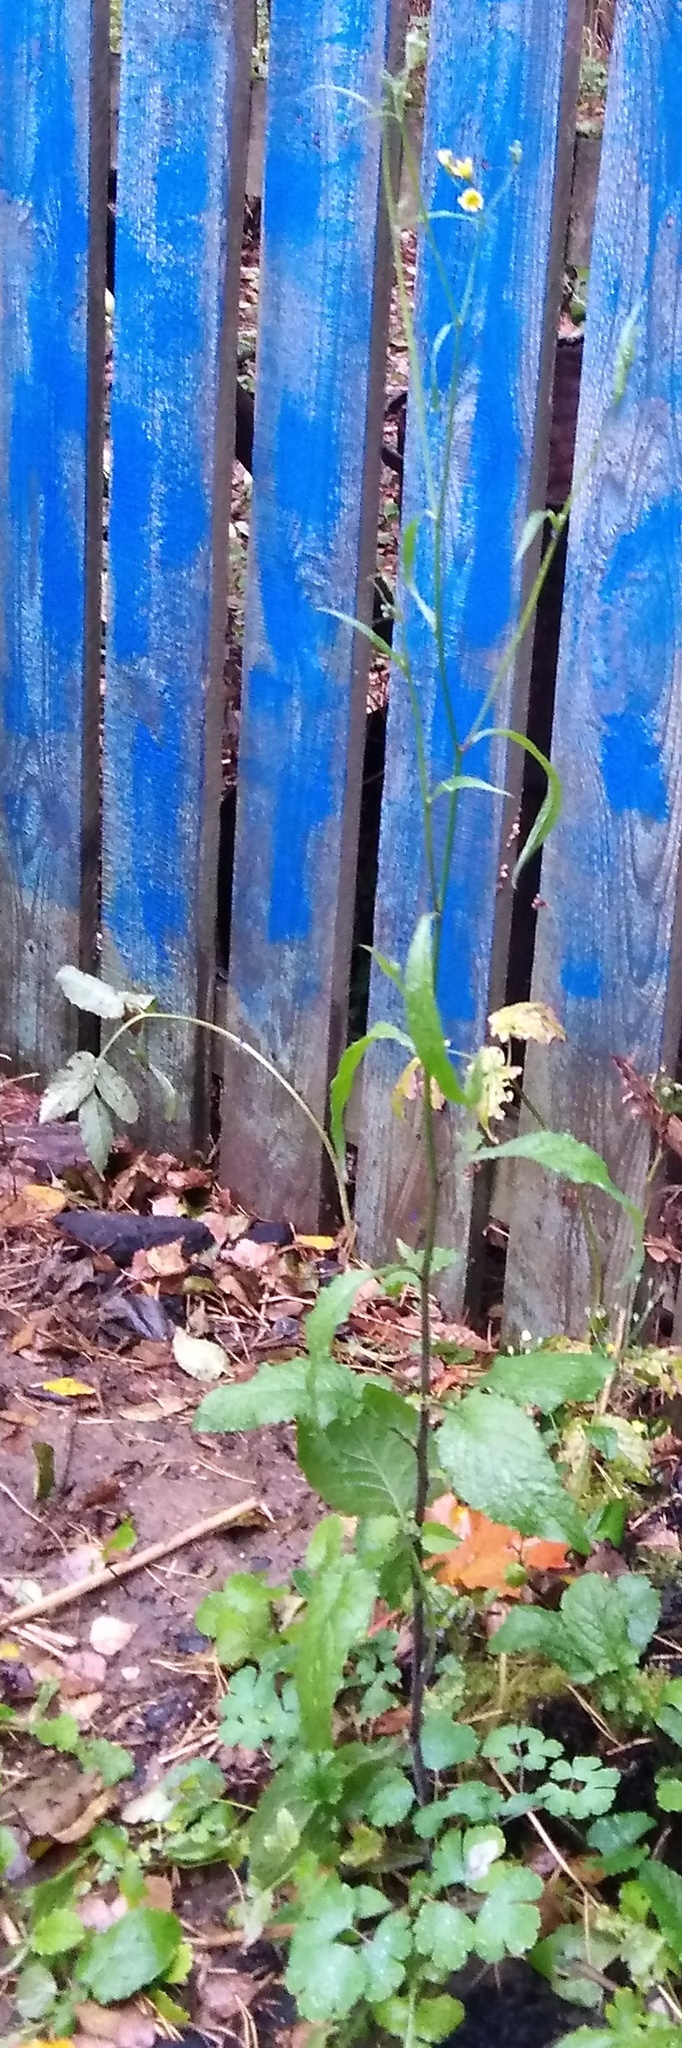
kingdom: Plantae
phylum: Tracheophyta
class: Magnoliopsida
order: Asterales
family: Asteraceae
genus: Lapsana
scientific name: Lapsana communis
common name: Nipplewort
